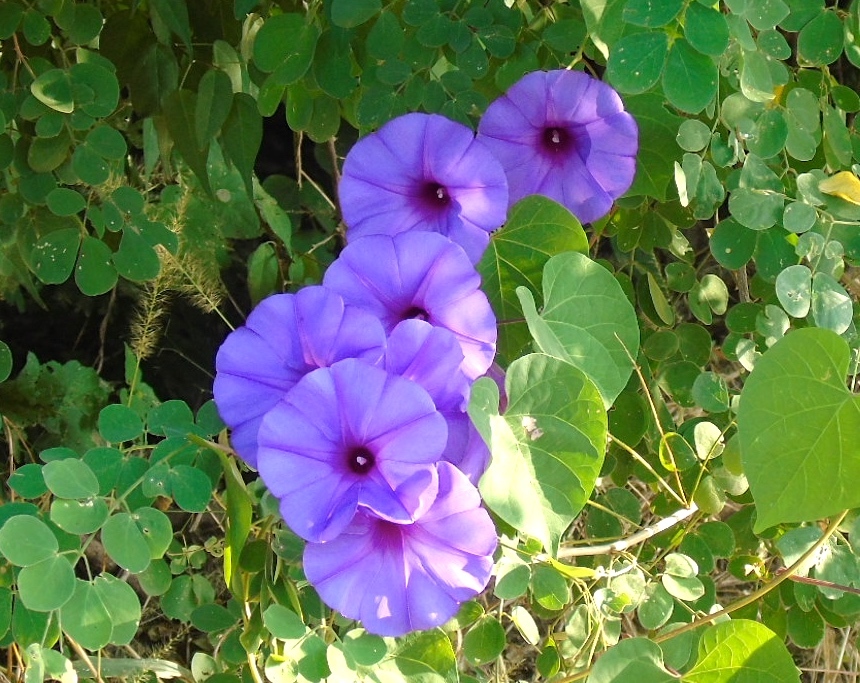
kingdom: Plantae
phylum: Tracheophyta
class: Magnoliopsida
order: Solanales
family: Convolvulaceae
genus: Ipomoea
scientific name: Ipomoea pedicellaris
